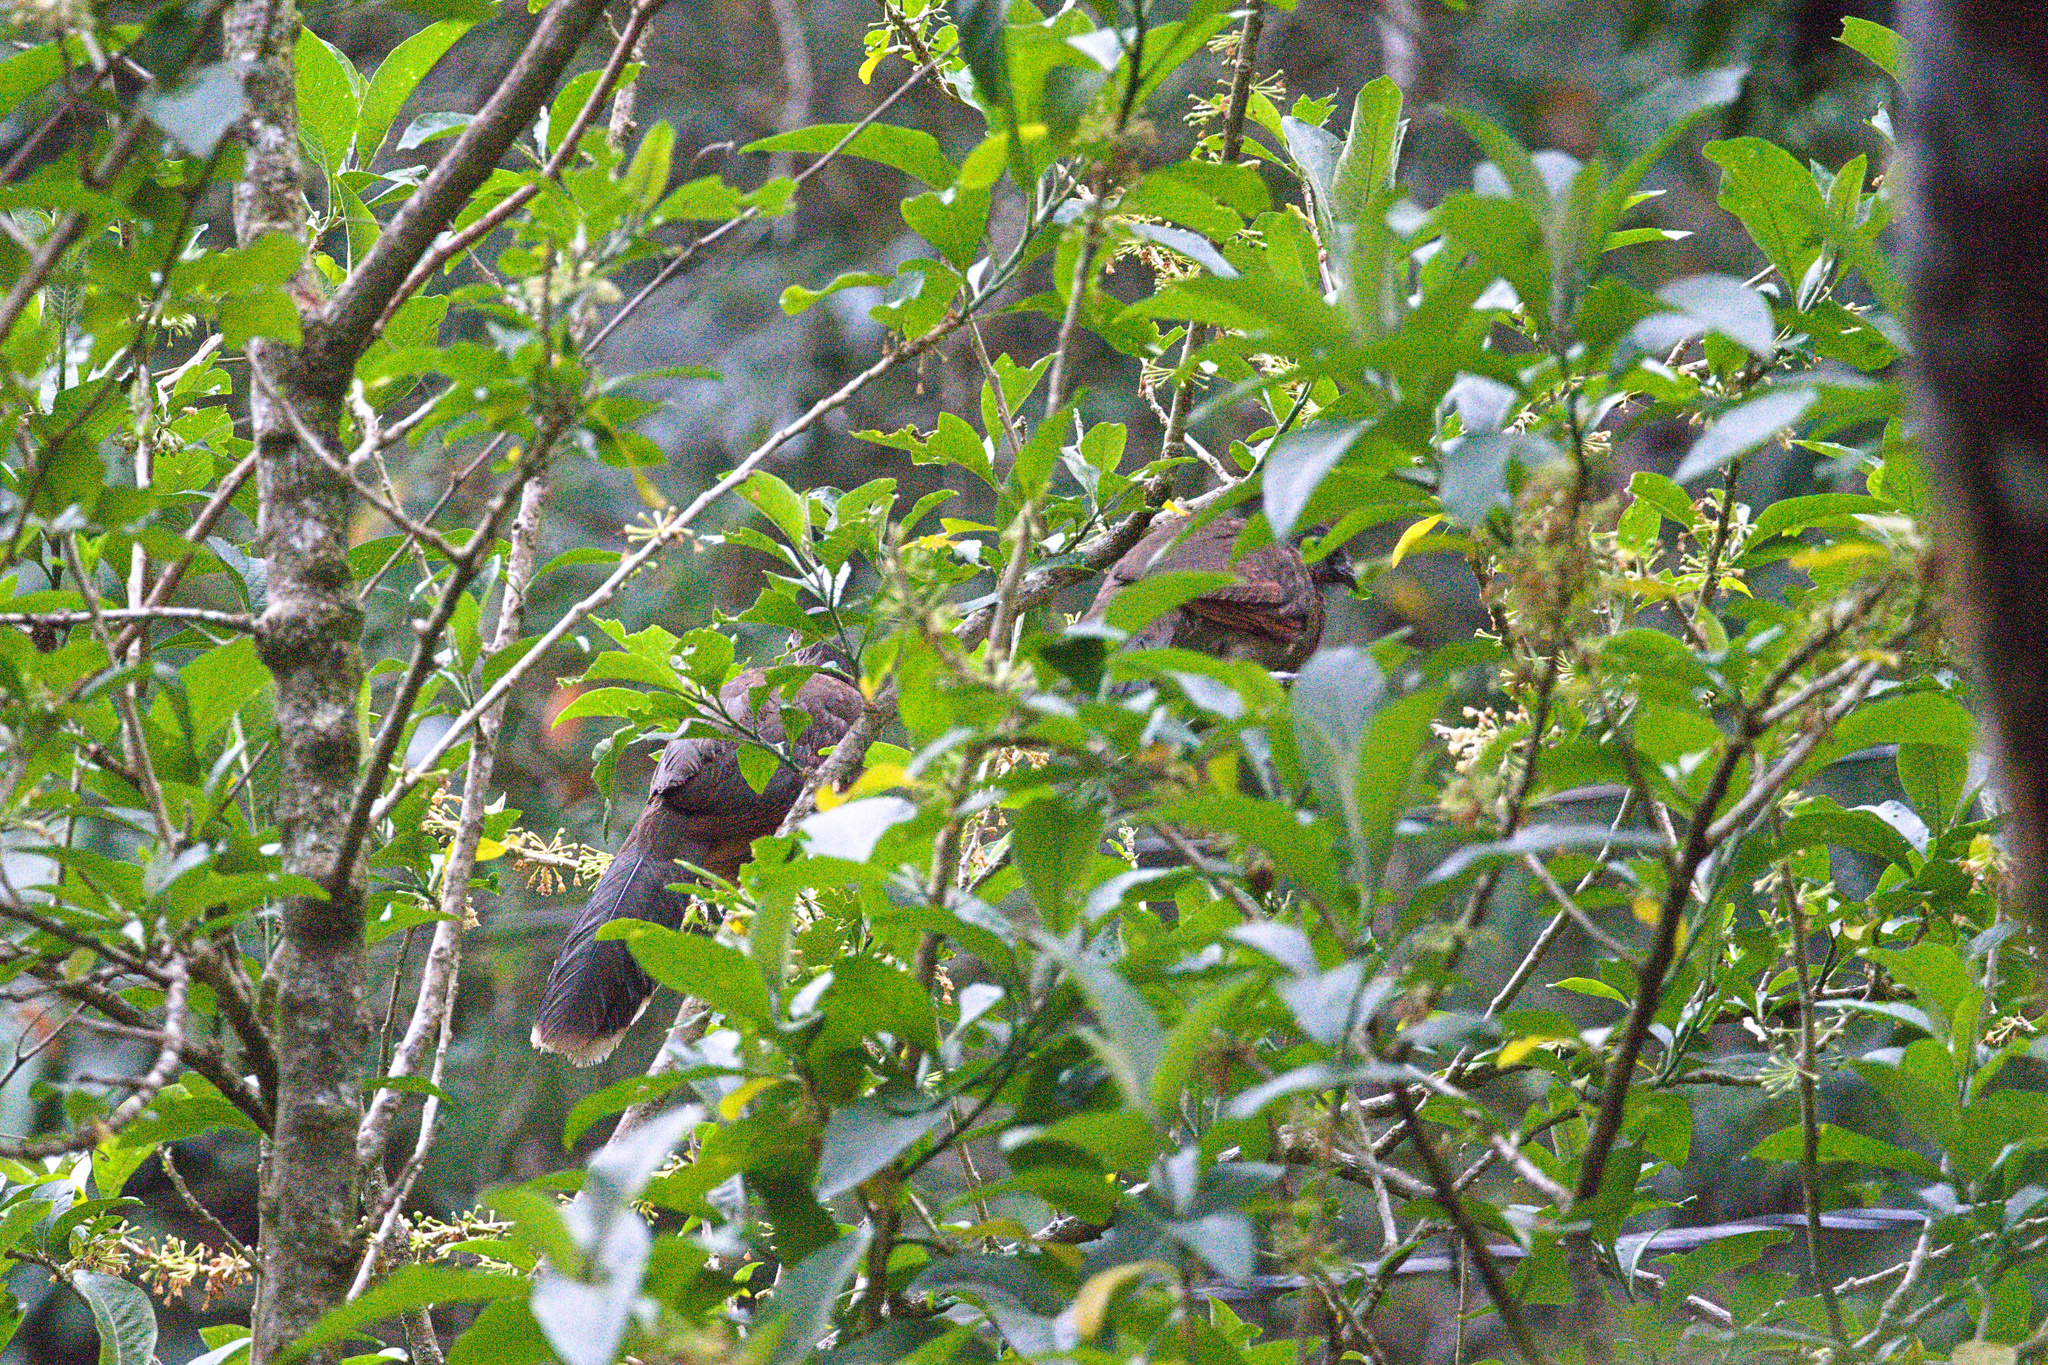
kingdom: Animalia
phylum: Chordata
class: Aves
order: Galliformes
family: Cracidae
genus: Ortalis
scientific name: Ortalis cinereiceps
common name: Grey-headed chachalaca
